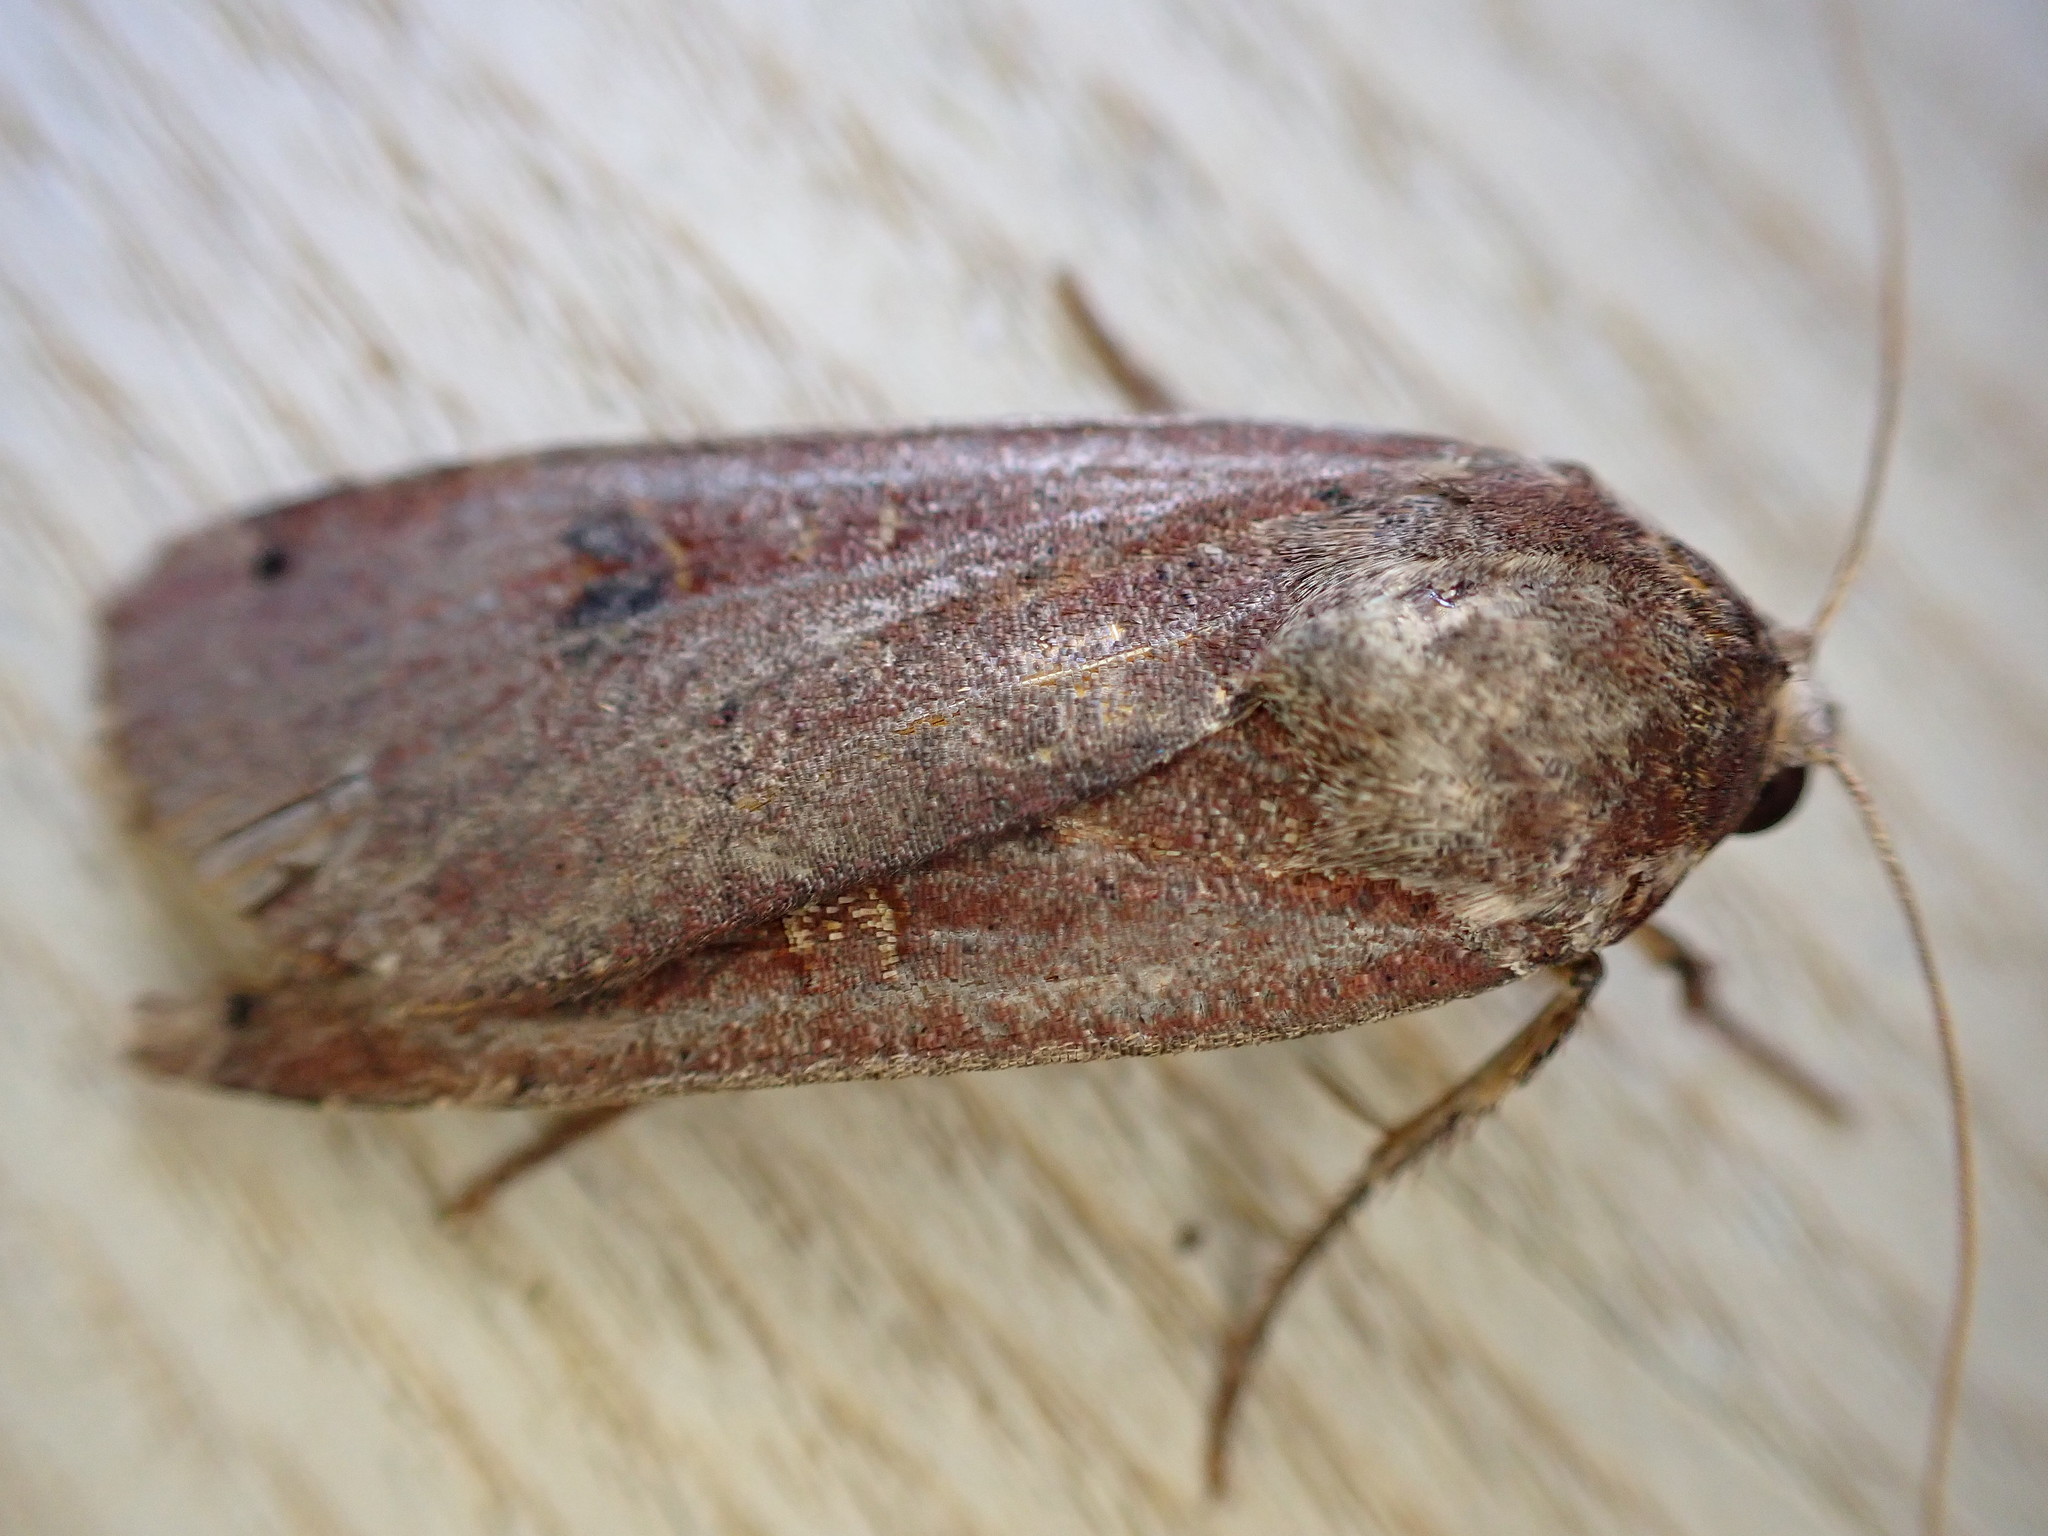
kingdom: Animalia
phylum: Arthropoda
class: Insecta
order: Lepidoptera
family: Noctuidae
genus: Noctua
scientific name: Noctua pronuba
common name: Large yellow underwing
